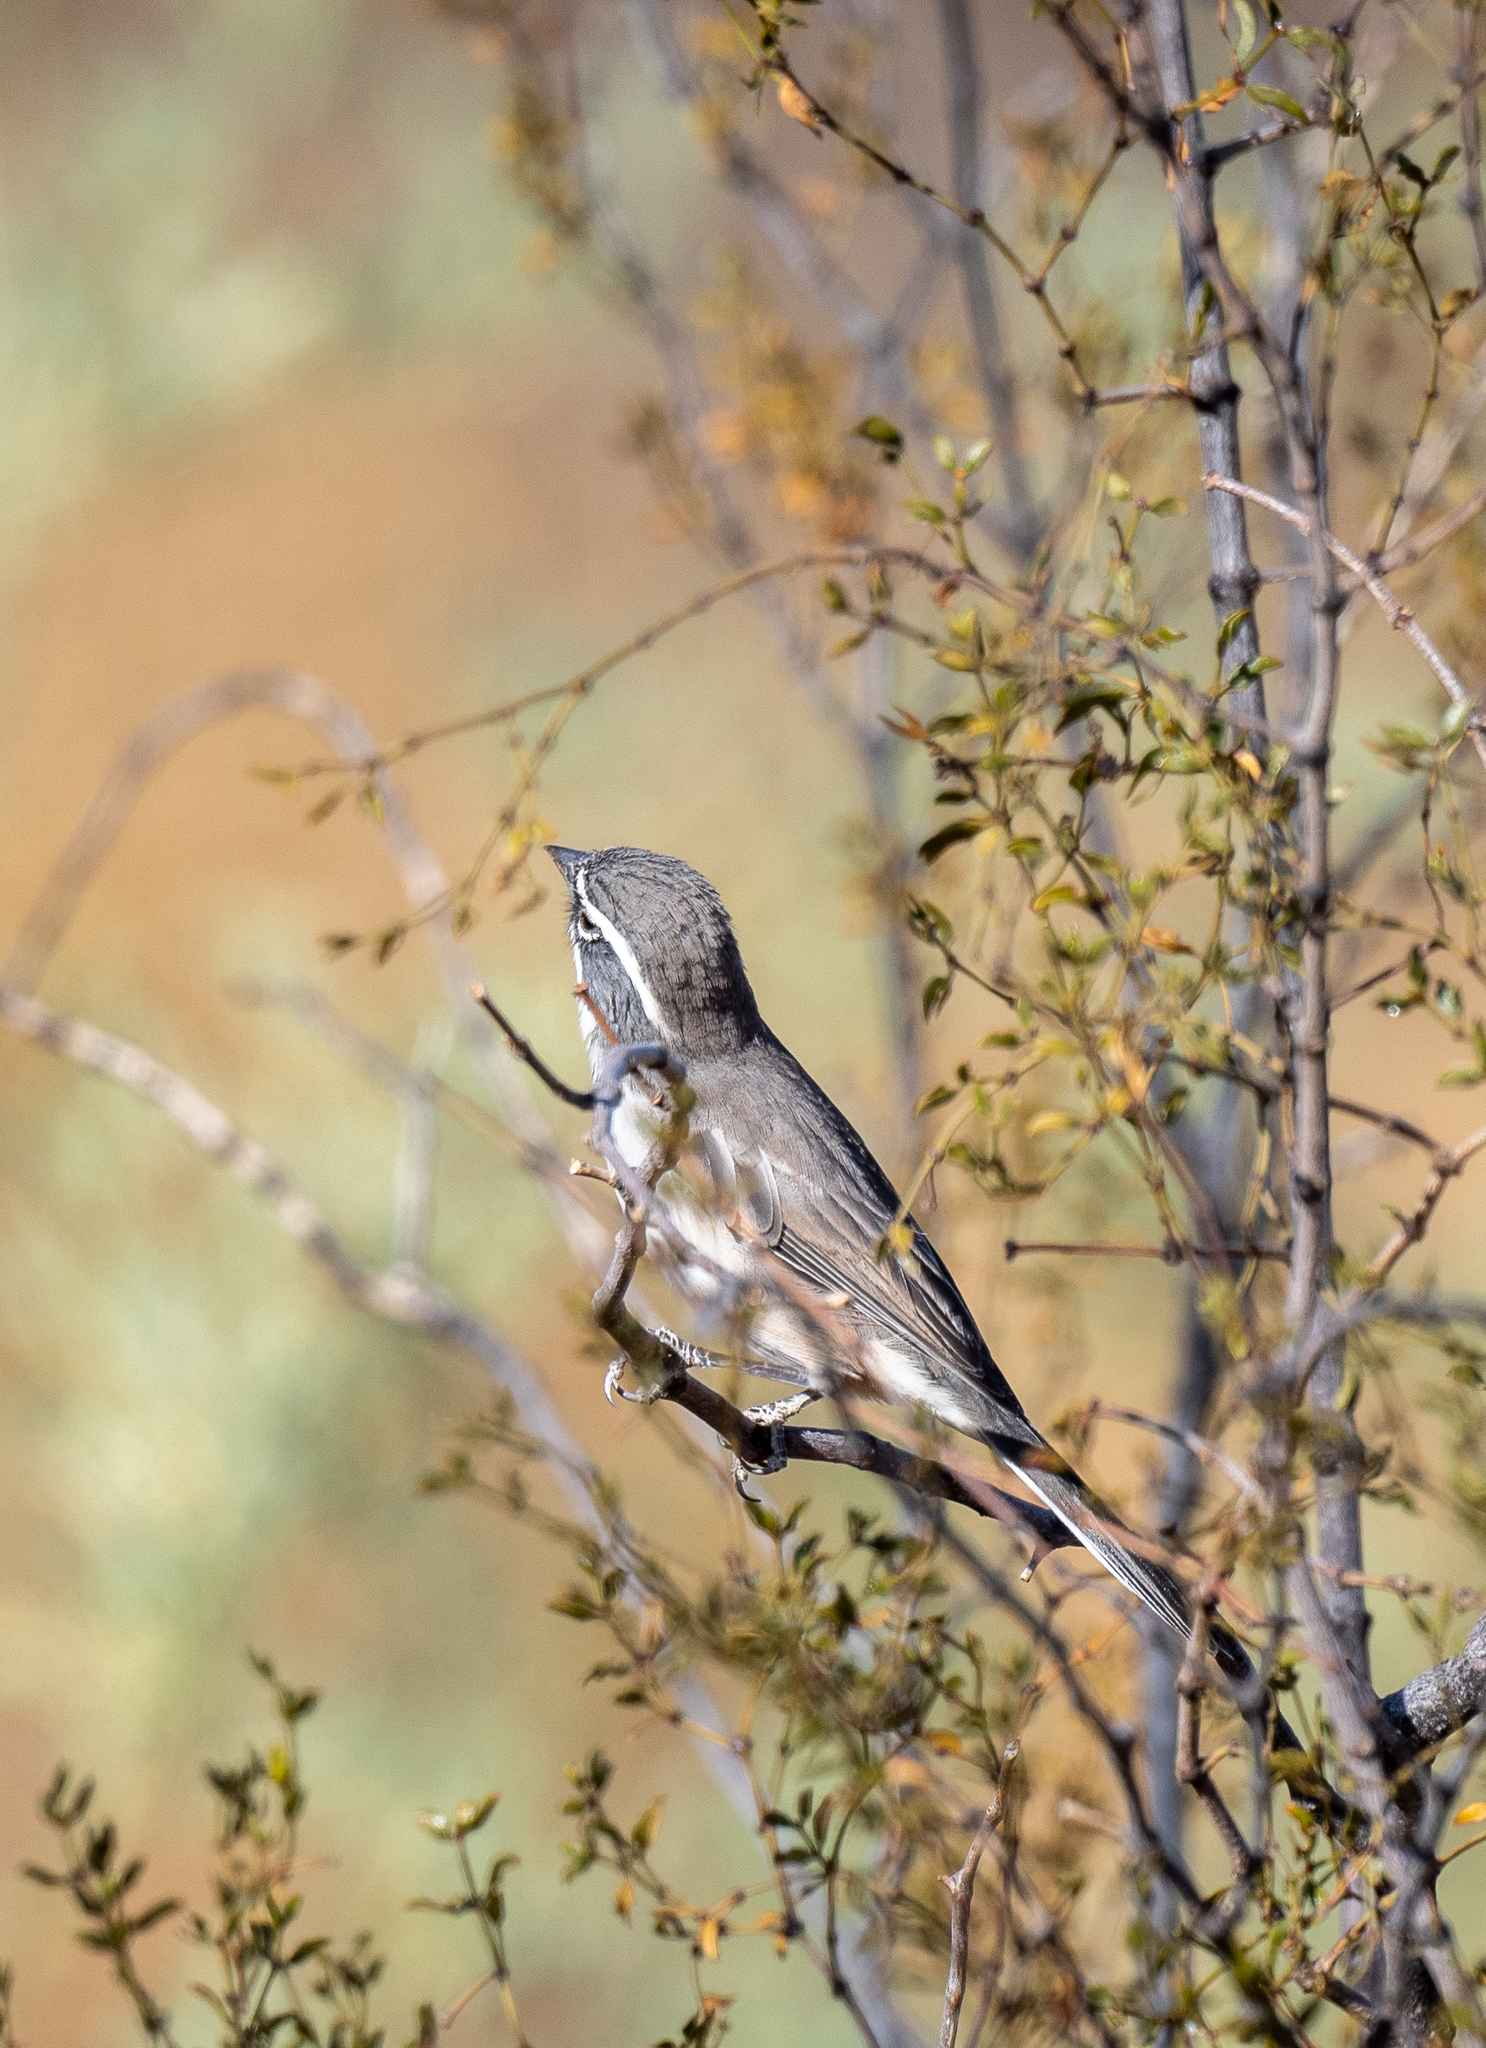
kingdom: Animalia
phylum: Chordata
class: Aves
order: Passeriformes
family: Passerellidae
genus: Amphispiza
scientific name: Amphispiza bilineata
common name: Black-throated sparrow
